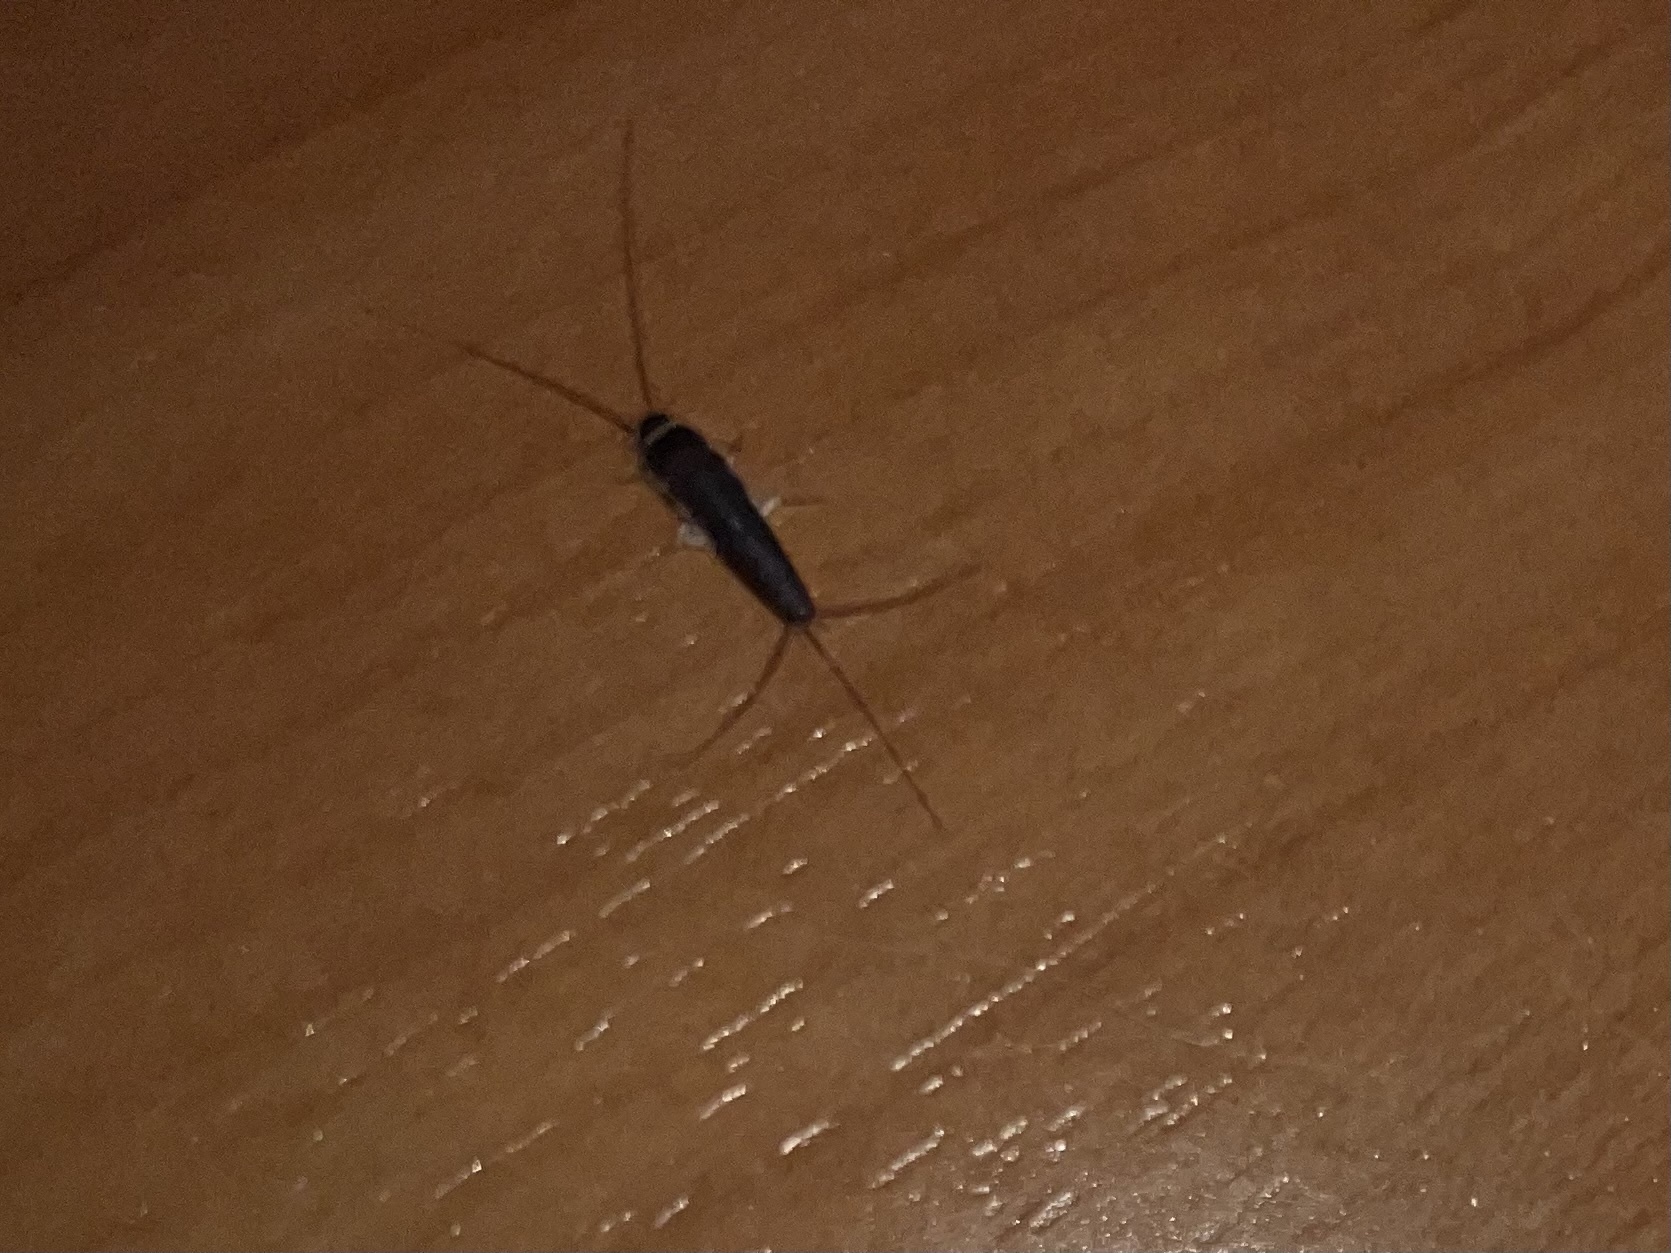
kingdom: Animalia
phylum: Arthropoda
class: Insecta
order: Zygentoma
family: Lepismatidae
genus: Ctenolepisma
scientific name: Ctenolepisma longicaudatum
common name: Silverfish
